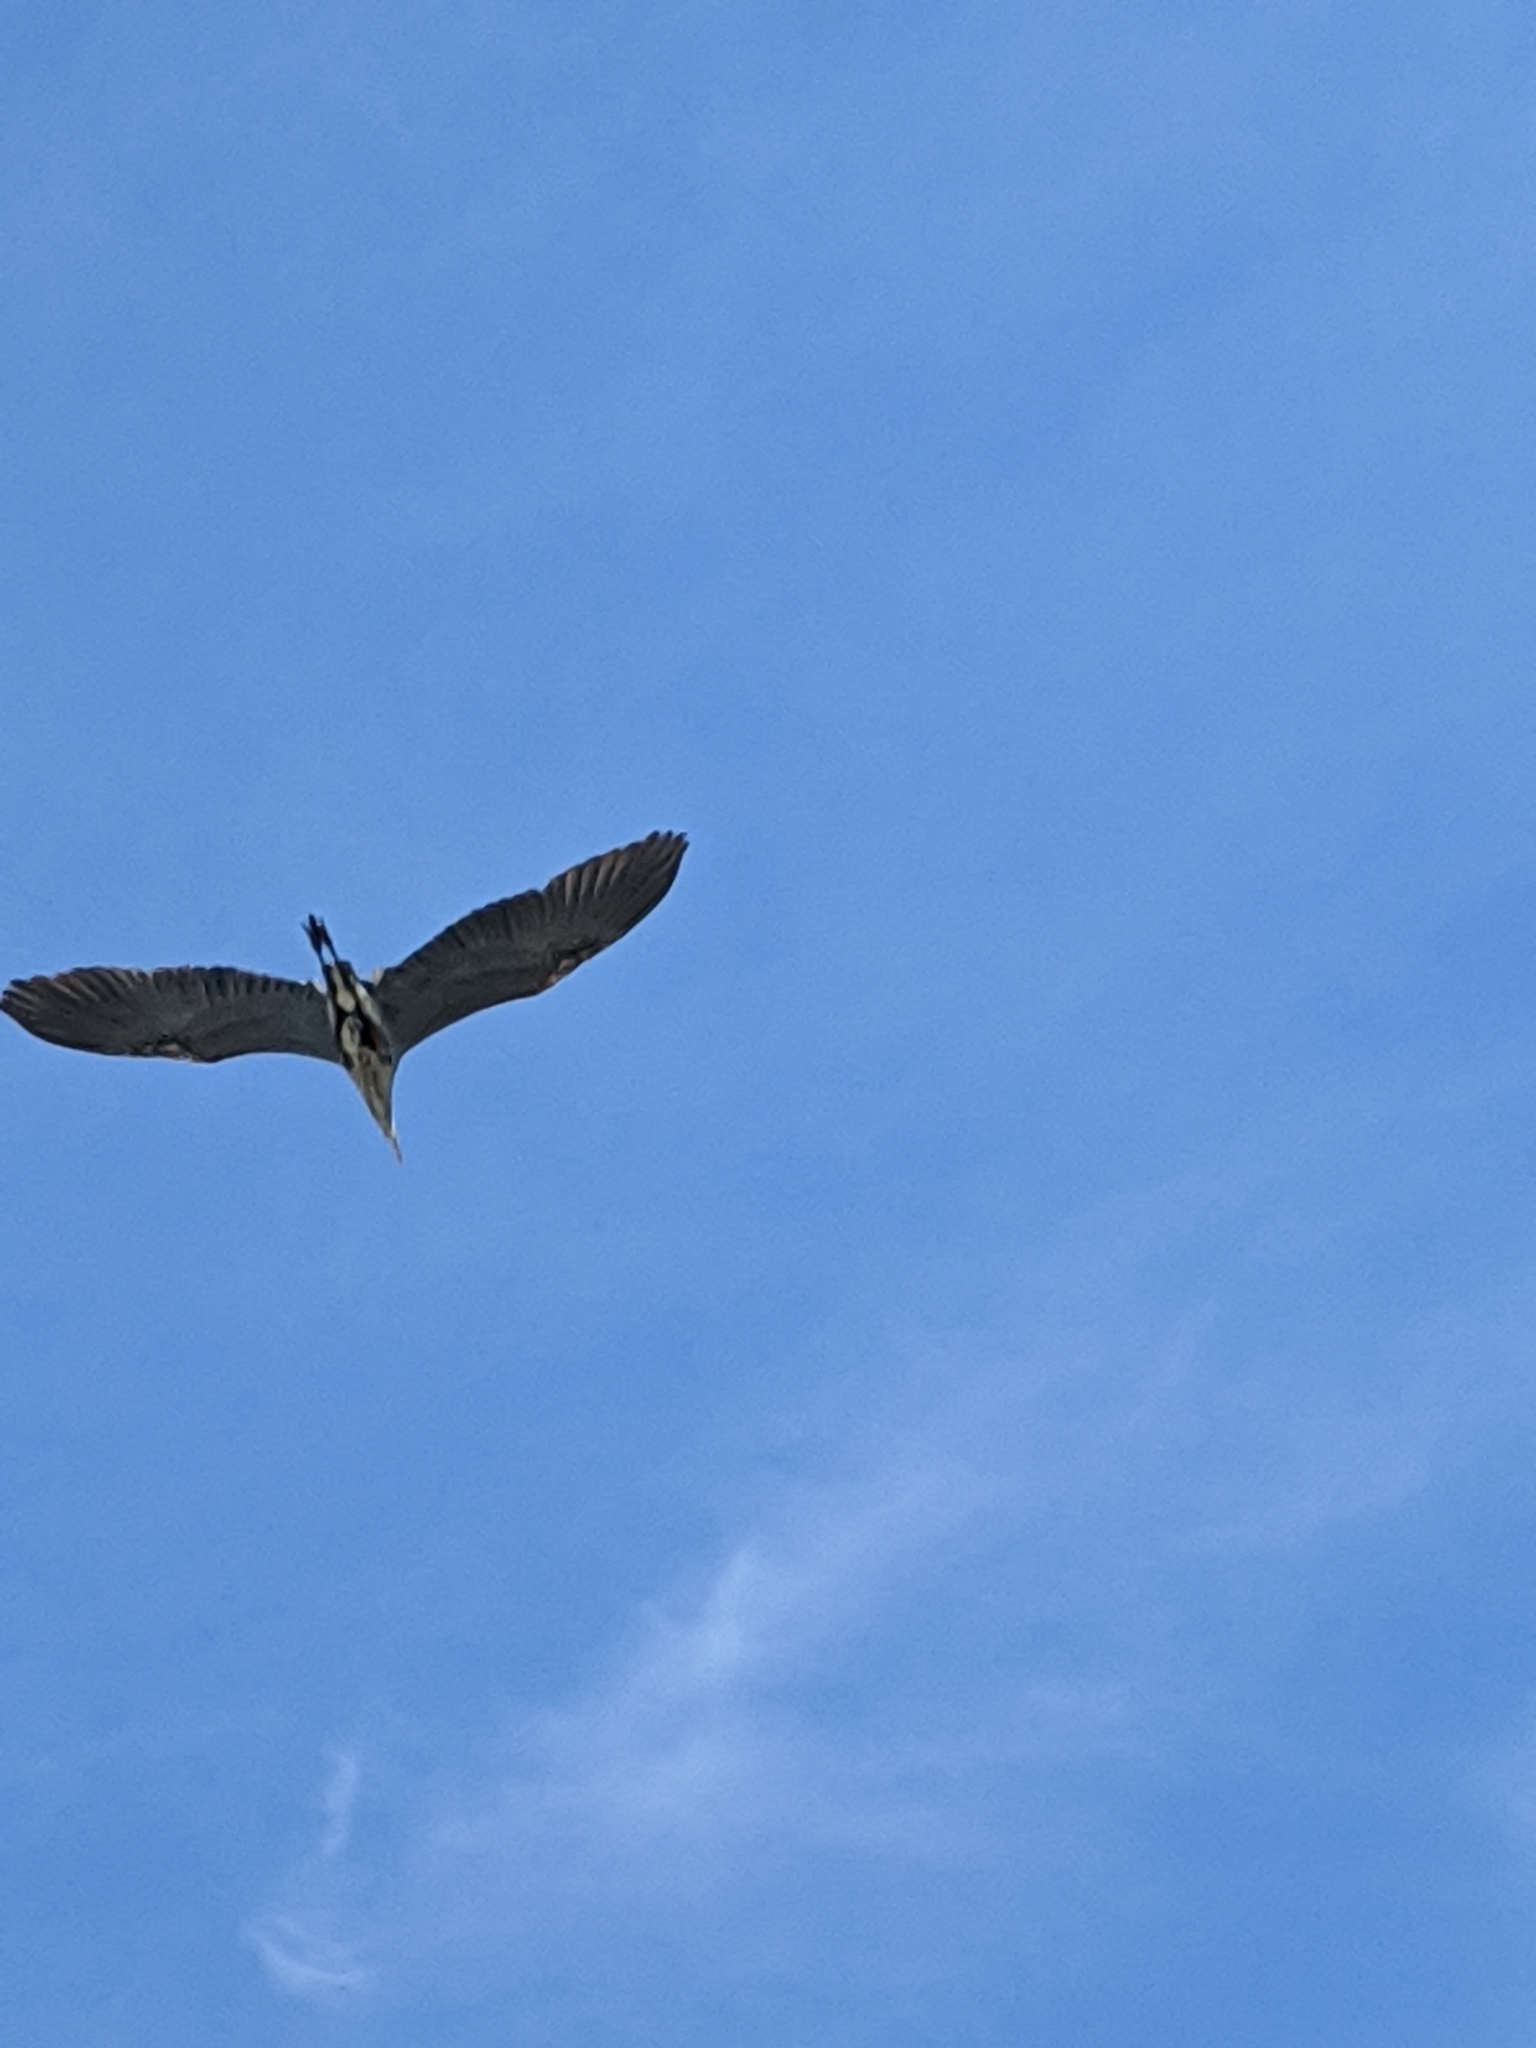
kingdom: Animalia
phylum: Chordata
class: Aves
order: Pelecaniformes
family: Ardeidae
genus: Ardea
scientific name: Ardea herodias
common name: Great blue heron
